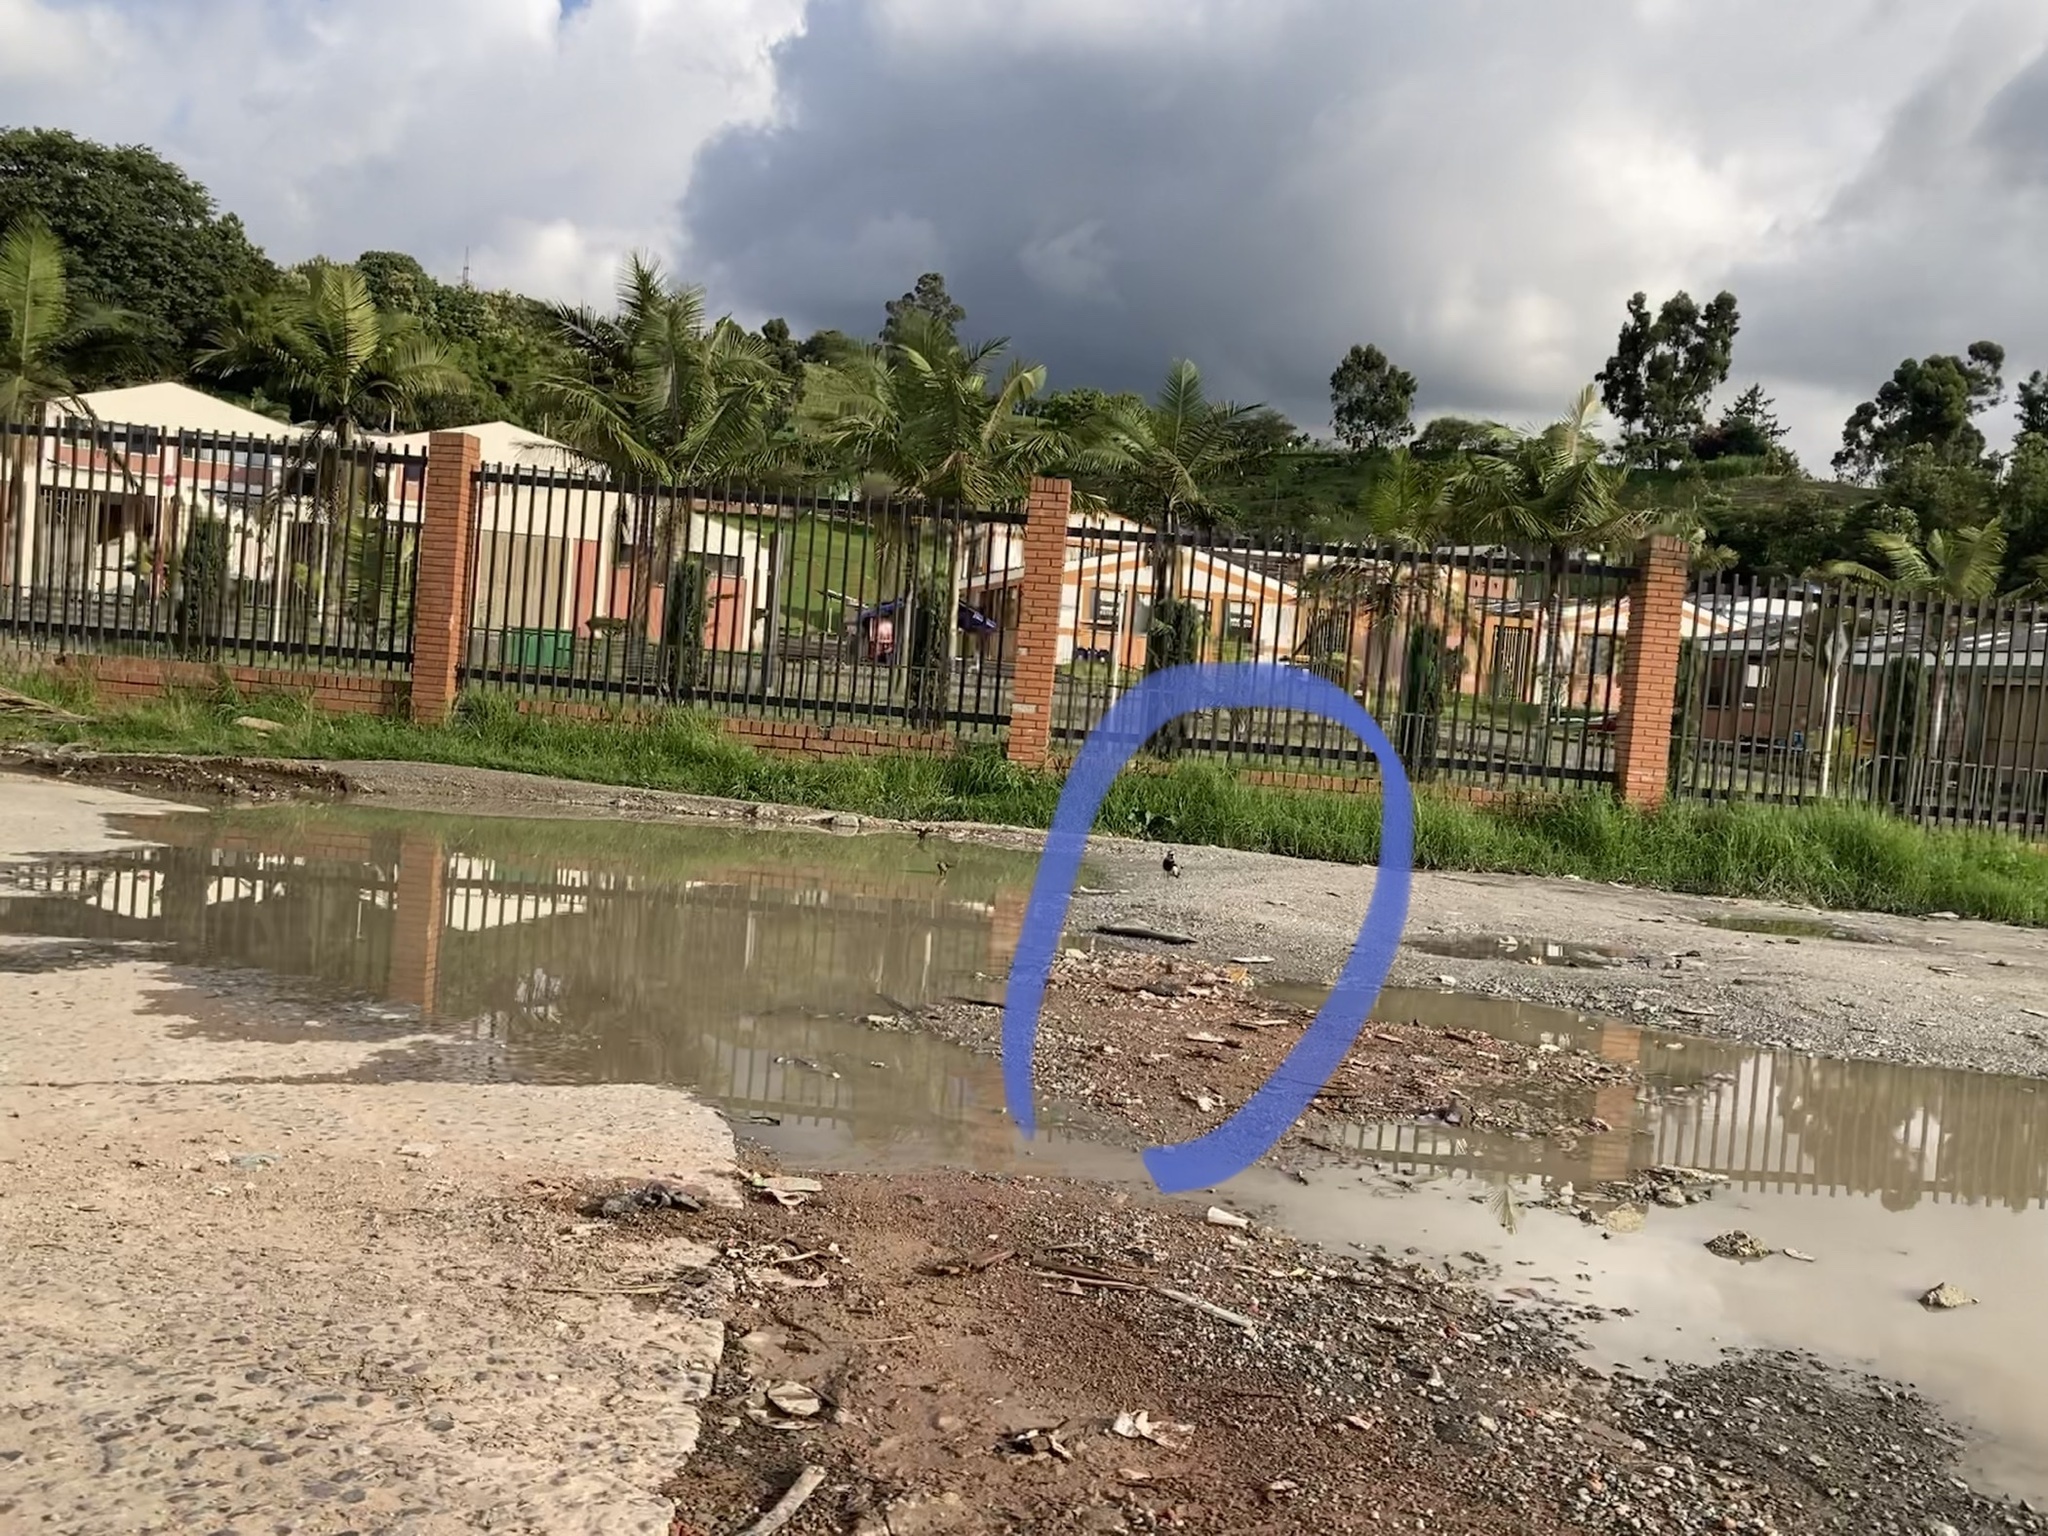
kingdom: Animalia
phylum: Chordata
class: Aves
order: Charadriiformes
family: Charadriidae
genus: Vanellus
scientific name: Vanellus chilensis
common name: Southern lapwing
